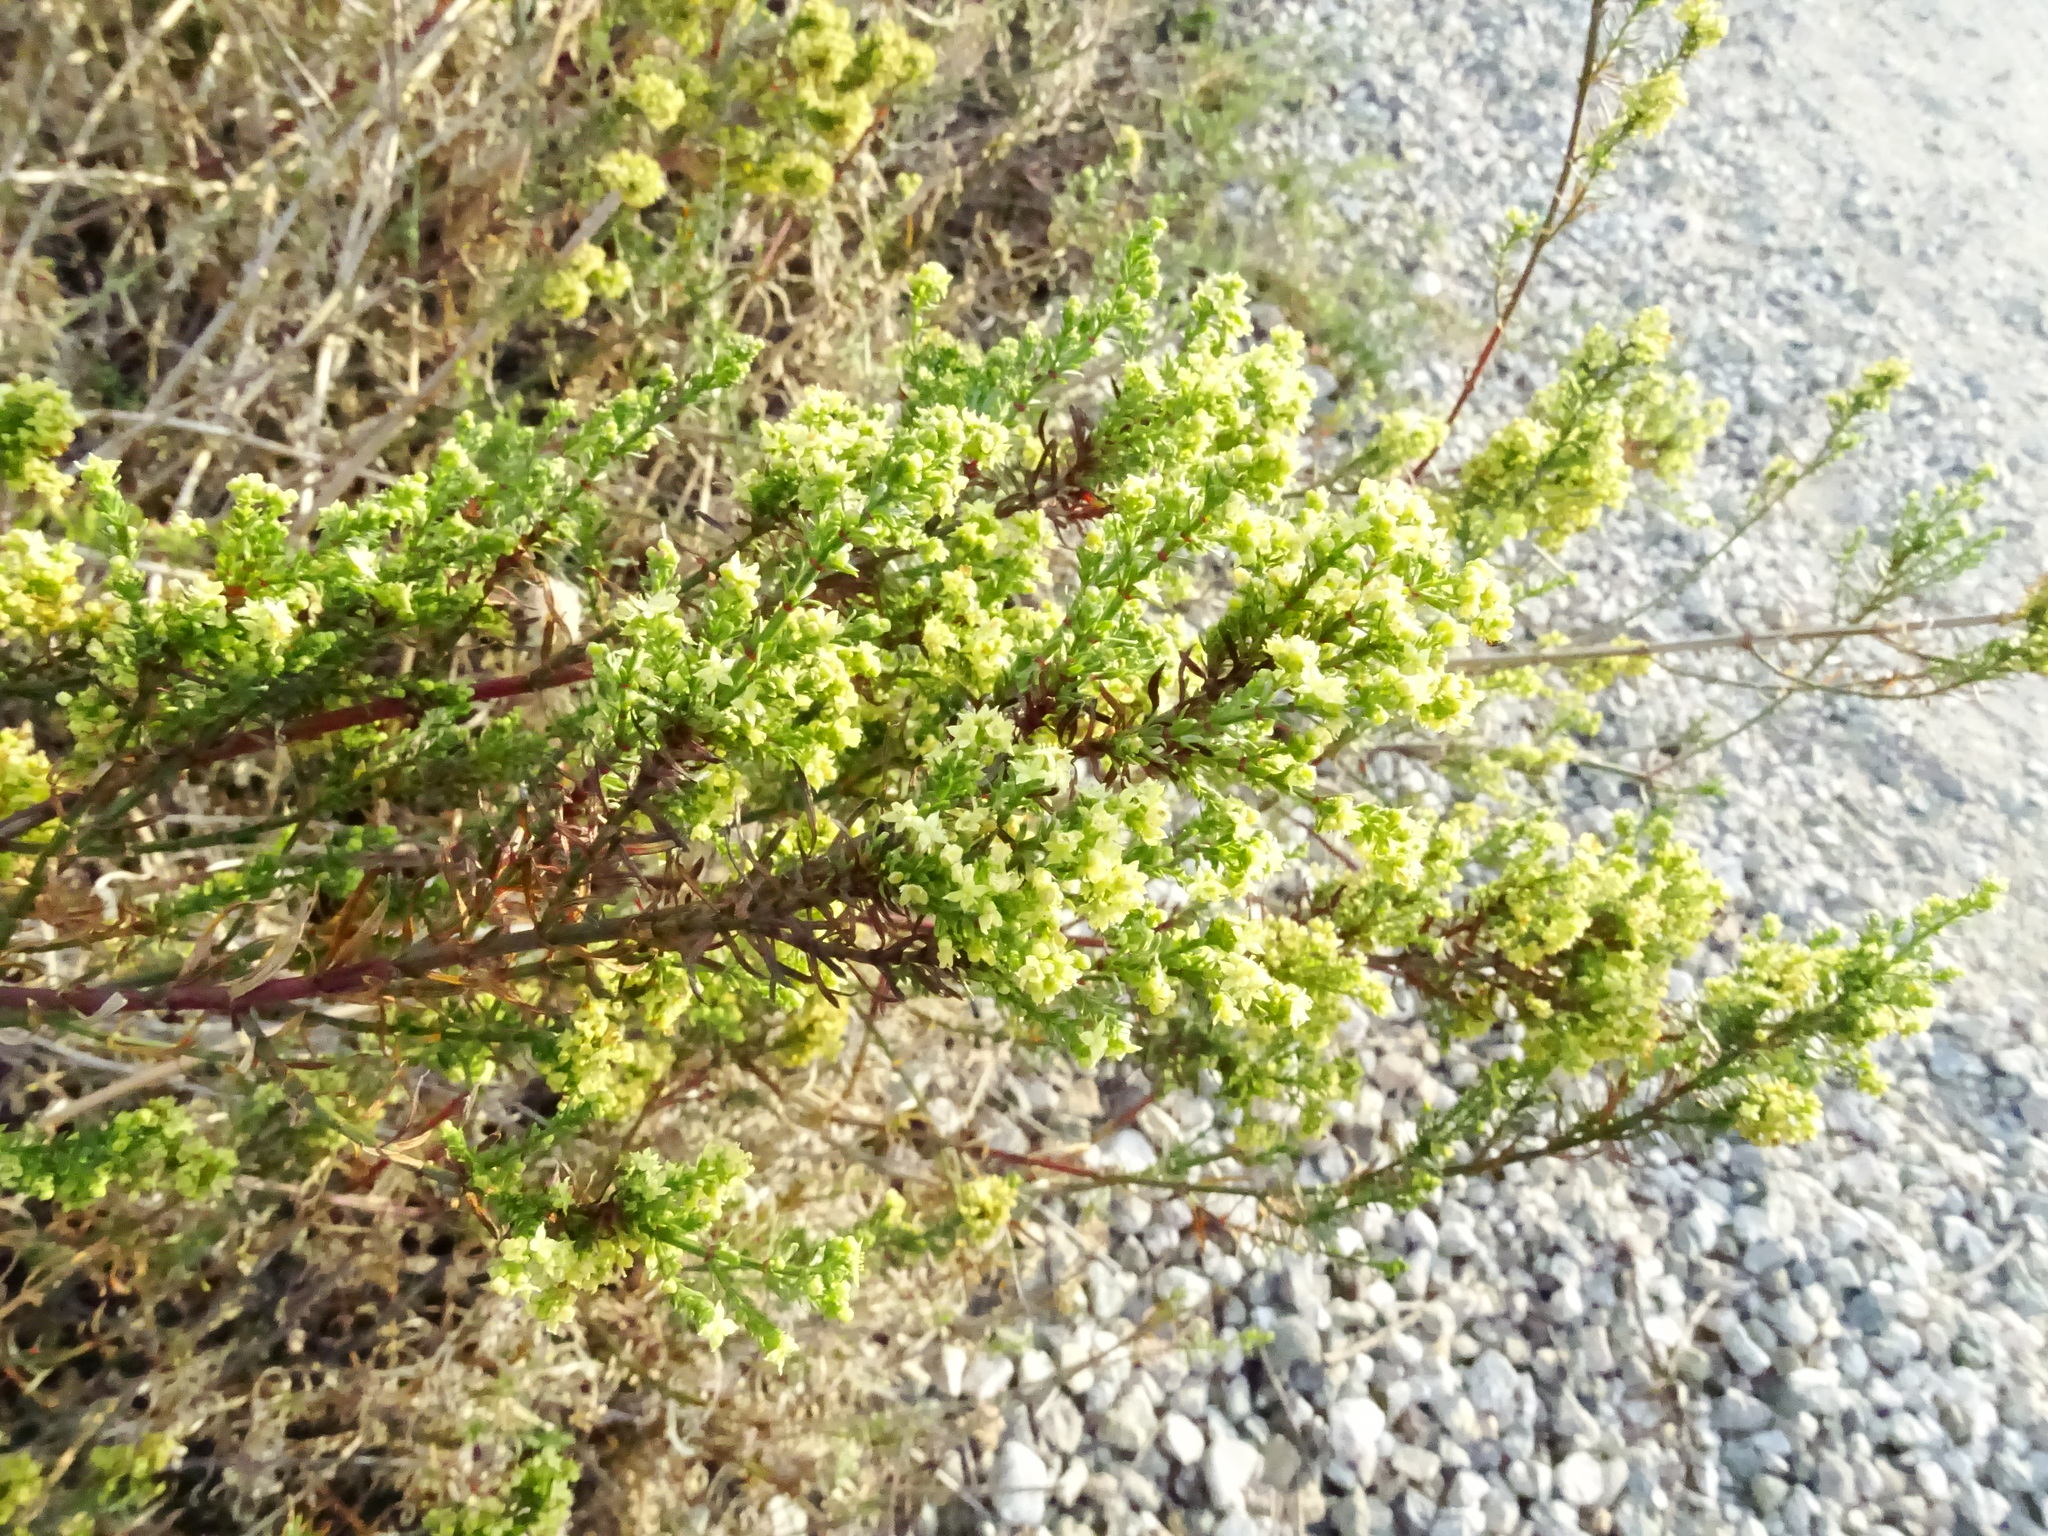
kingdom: Plantae
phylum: Tracheophyta
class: Magnoliopsida
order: Gentianales
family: Rubiaceae
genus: Galium
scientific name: Galium angustifolium
